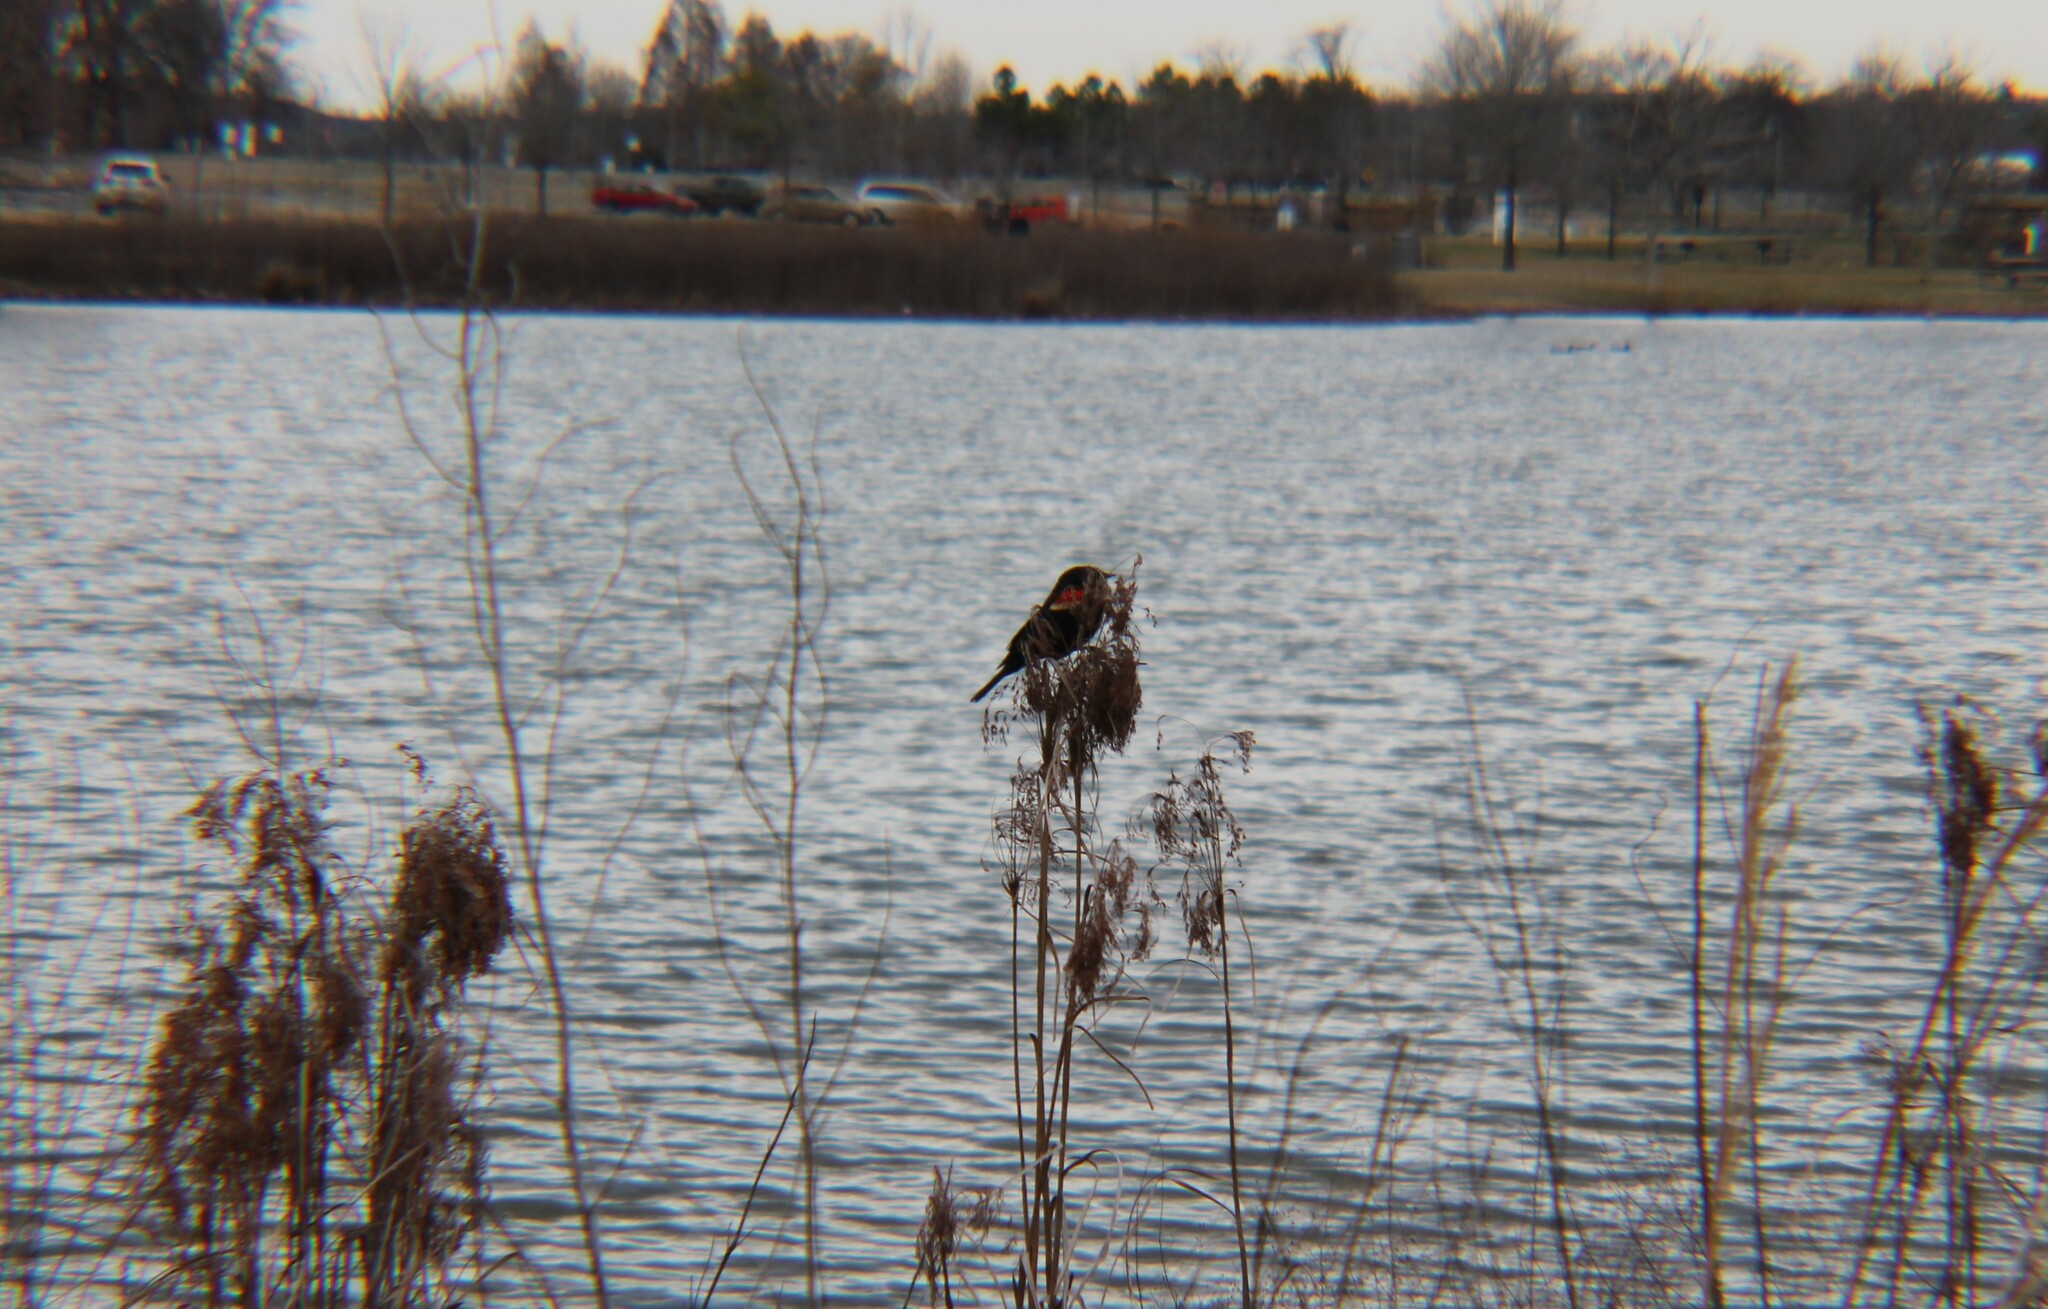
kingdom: Animalia
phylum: Chordata
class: Aves
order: Passeriformes
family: Icteridae
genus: Agelaius
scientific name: Agelaius phoeniceus
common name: Red-winged blackbird
